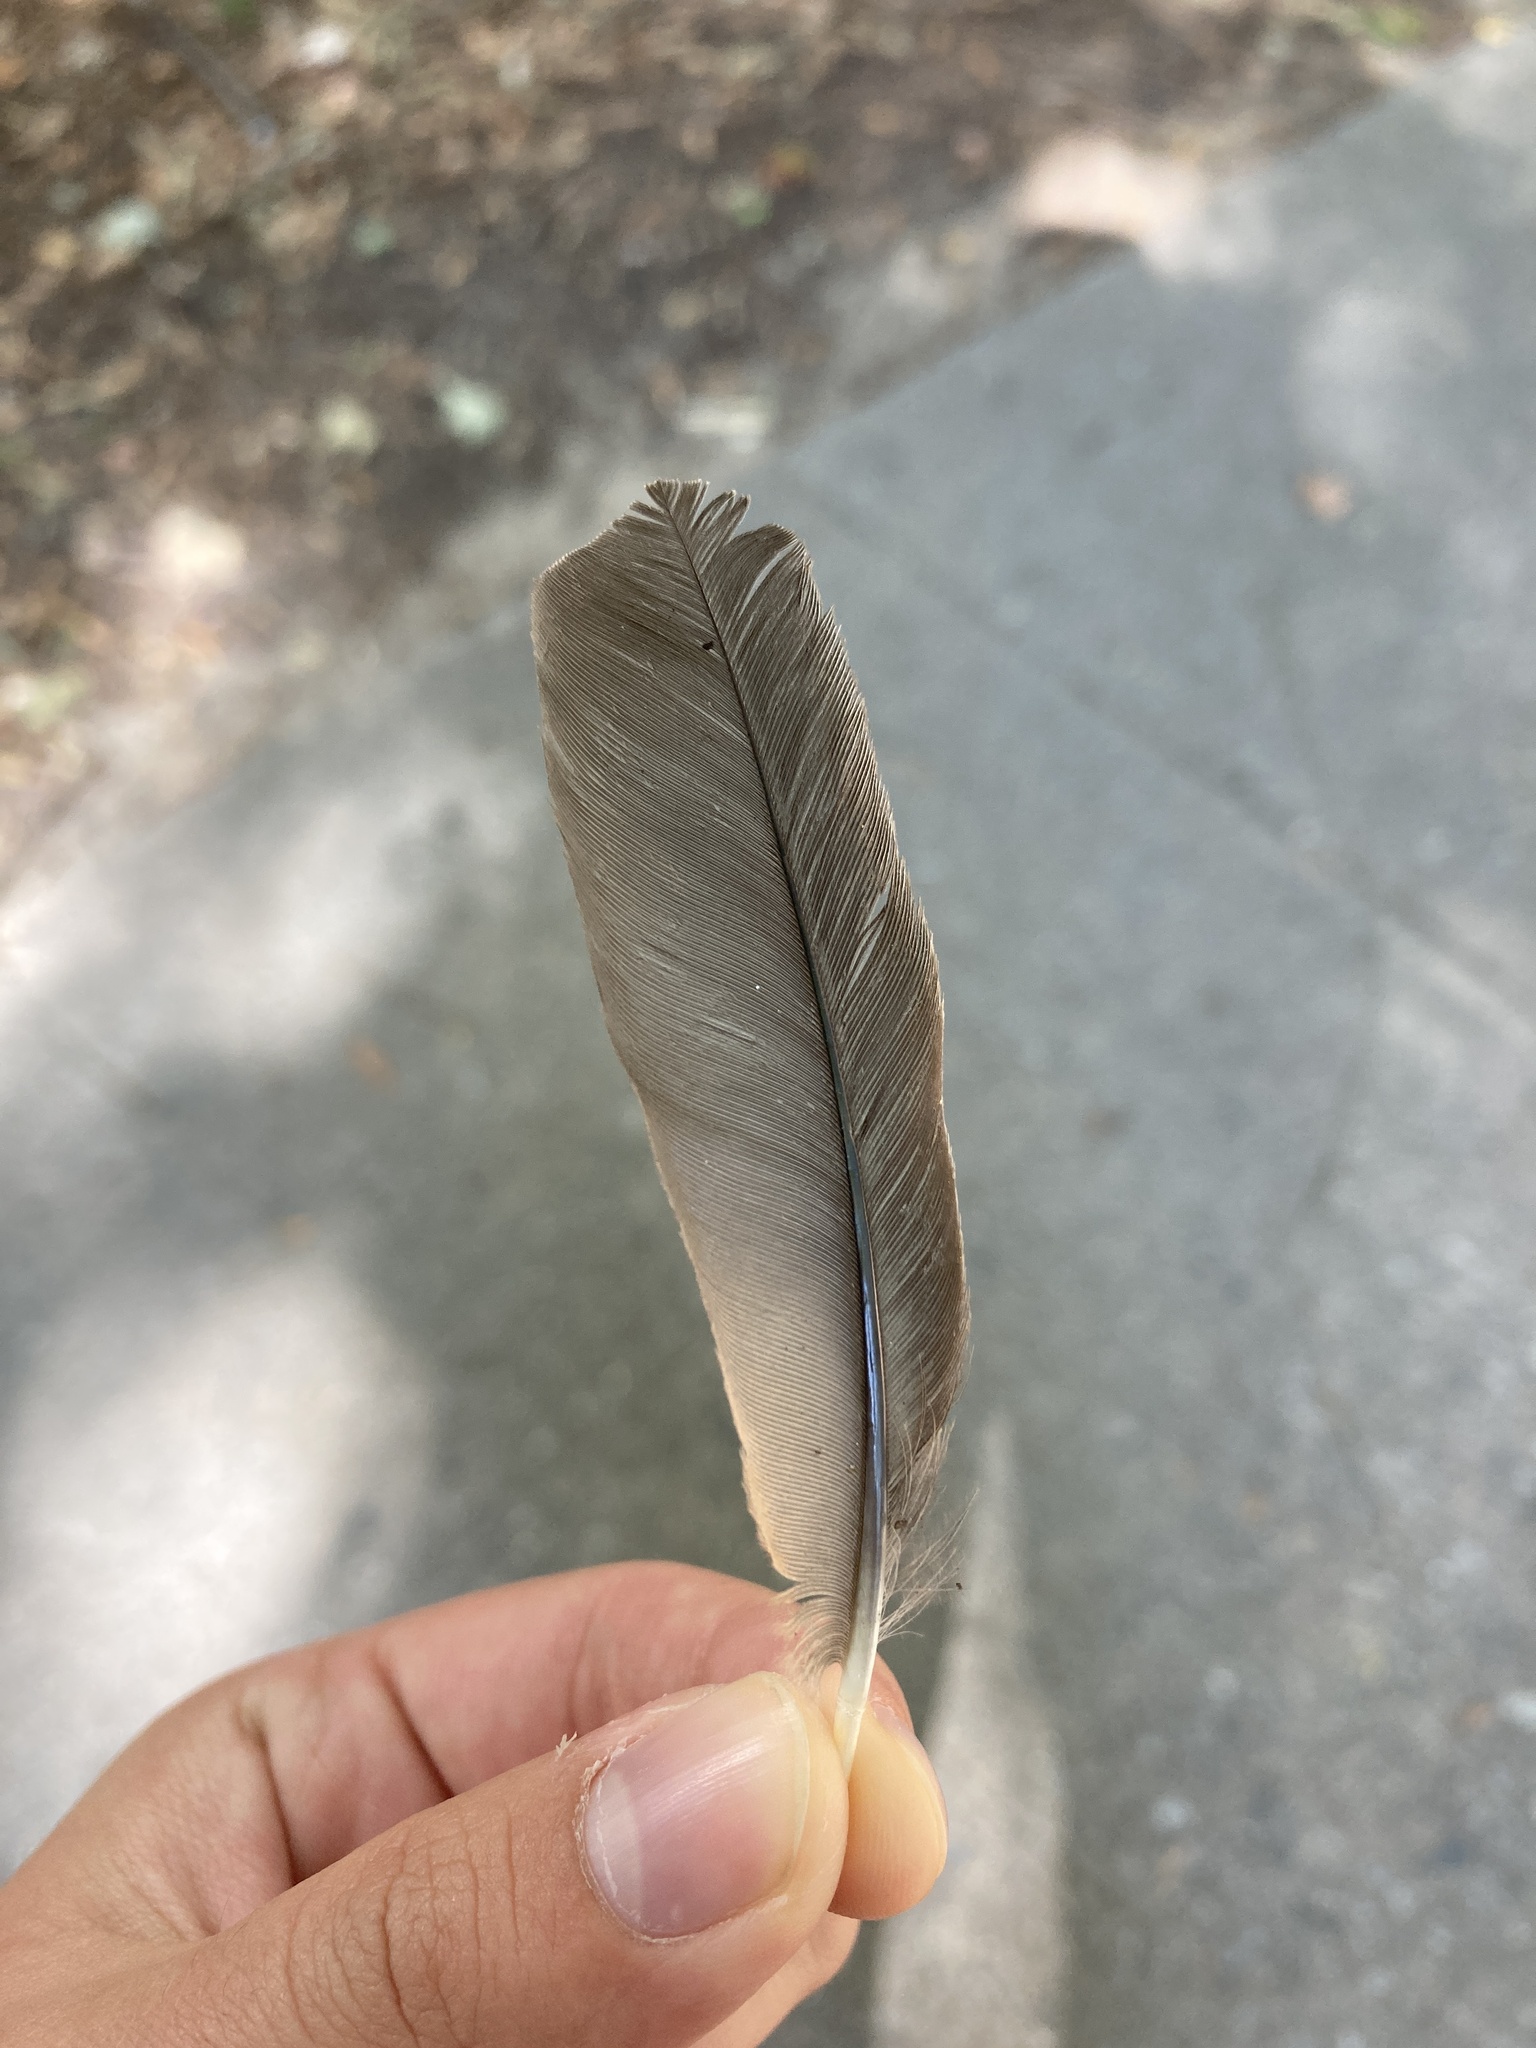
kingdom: Animalia
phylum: Chordata
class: Aves
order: Passeriformes
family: Turdidae
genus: Turdus
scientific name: Turdus migratorius
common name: American robin
